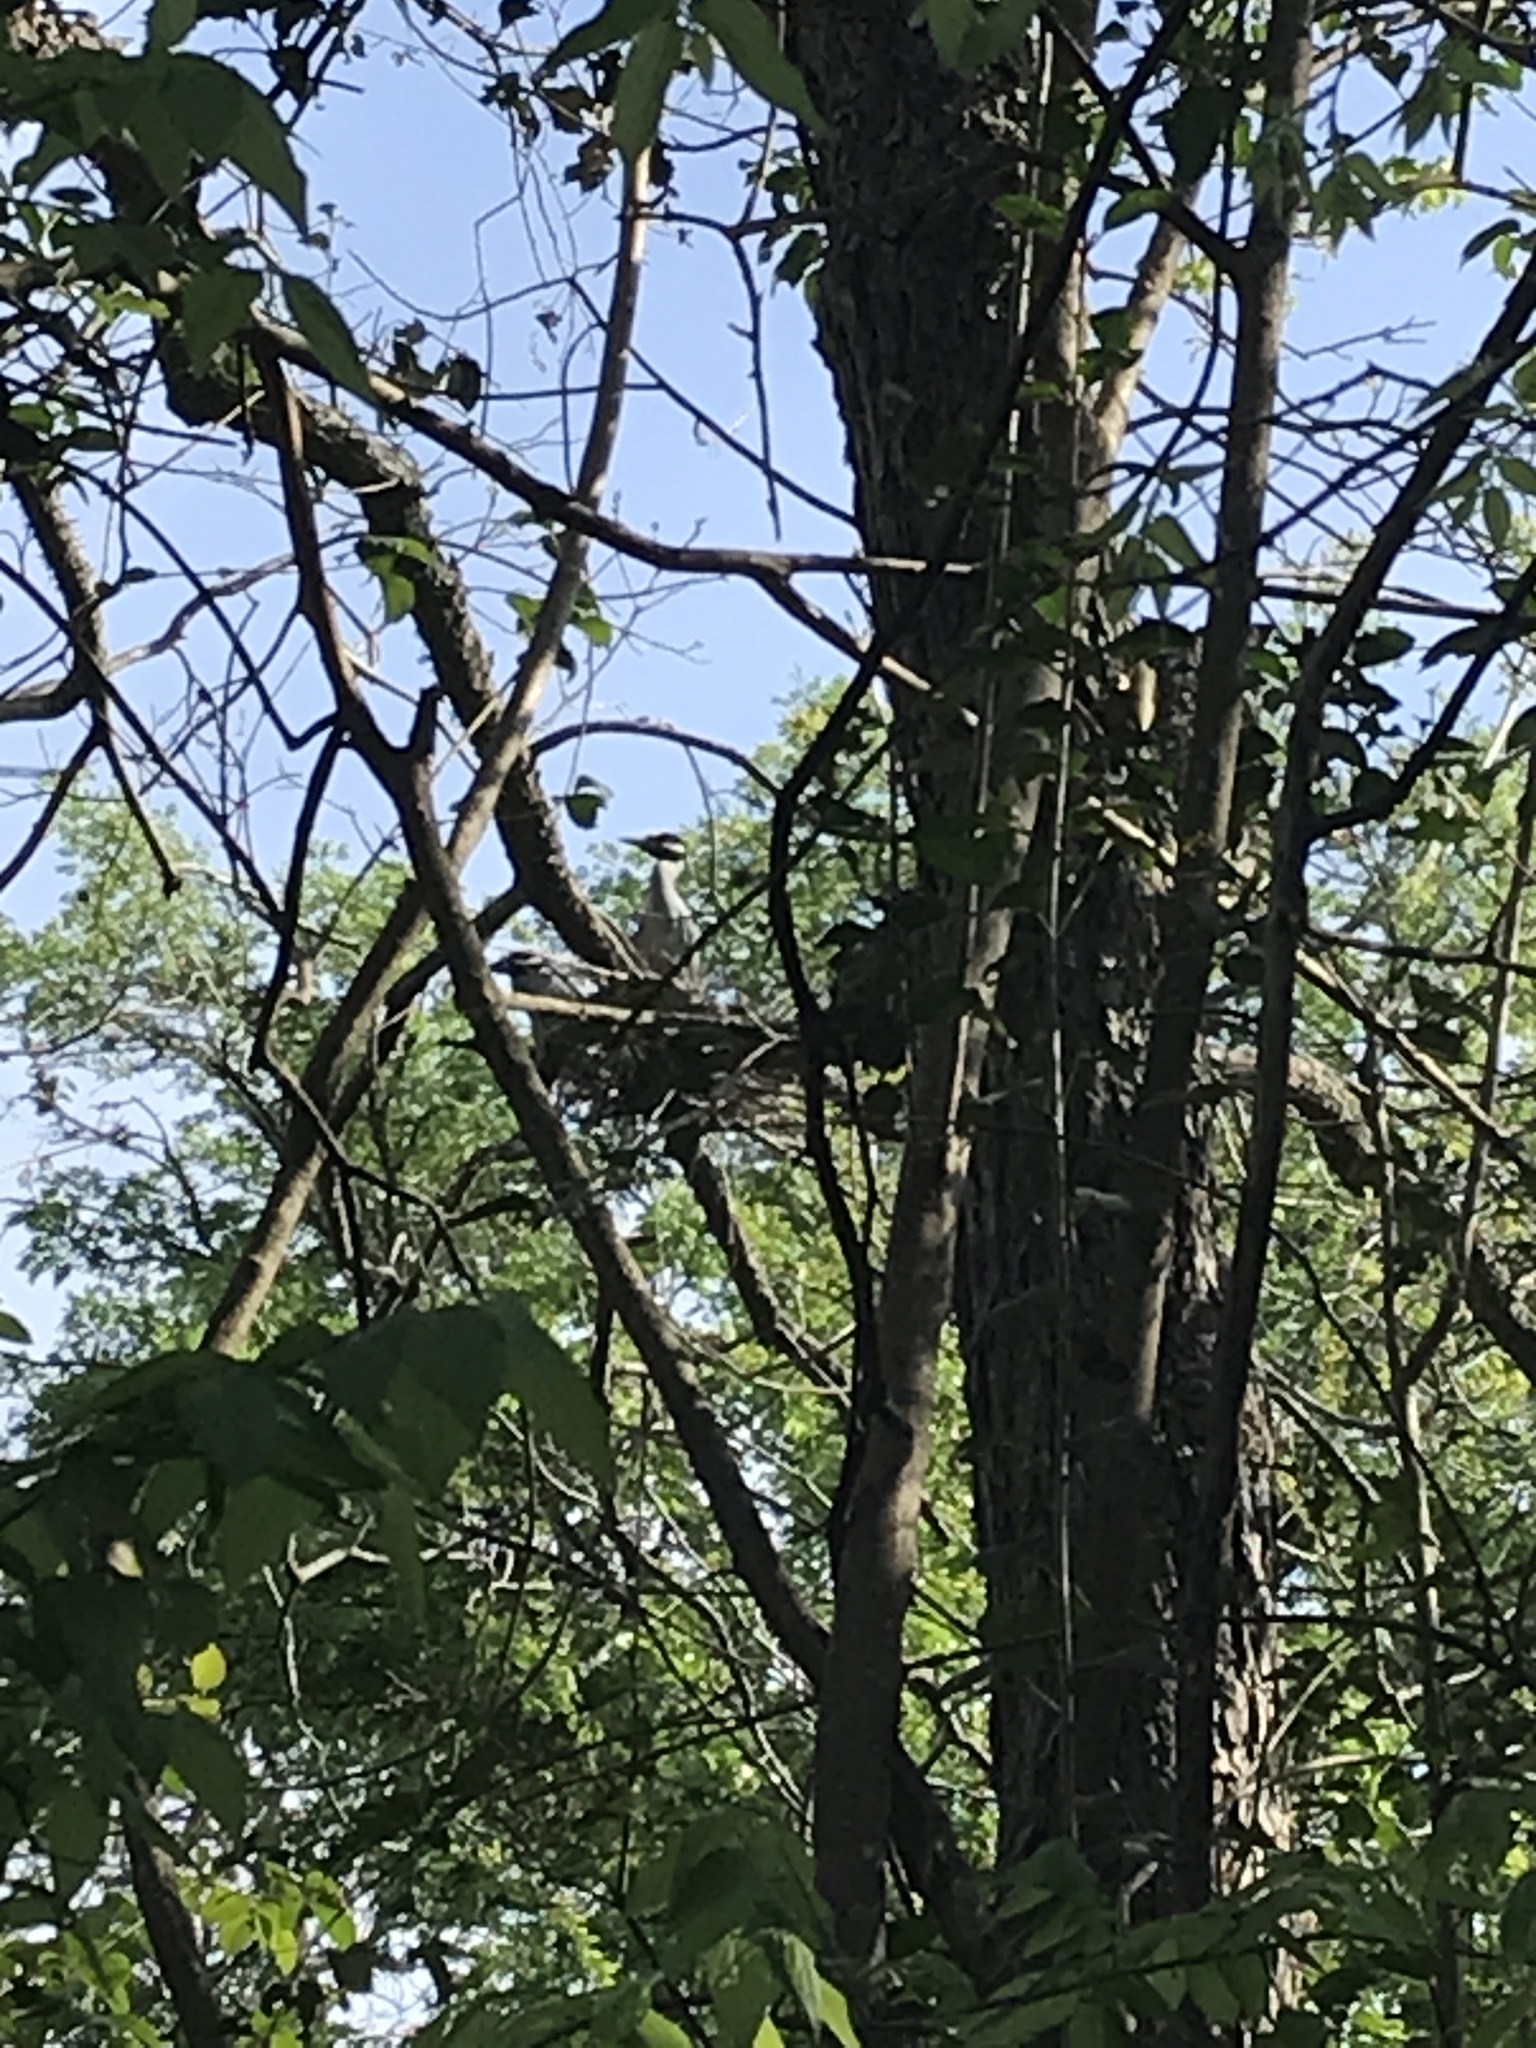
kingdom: Animalia
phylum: Chordata
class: Aves
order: Pelecaniformes
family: Ardeidae
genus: Nyctanassa
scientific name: Nyctanassa violacea
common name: Yellow-crowned night heron
